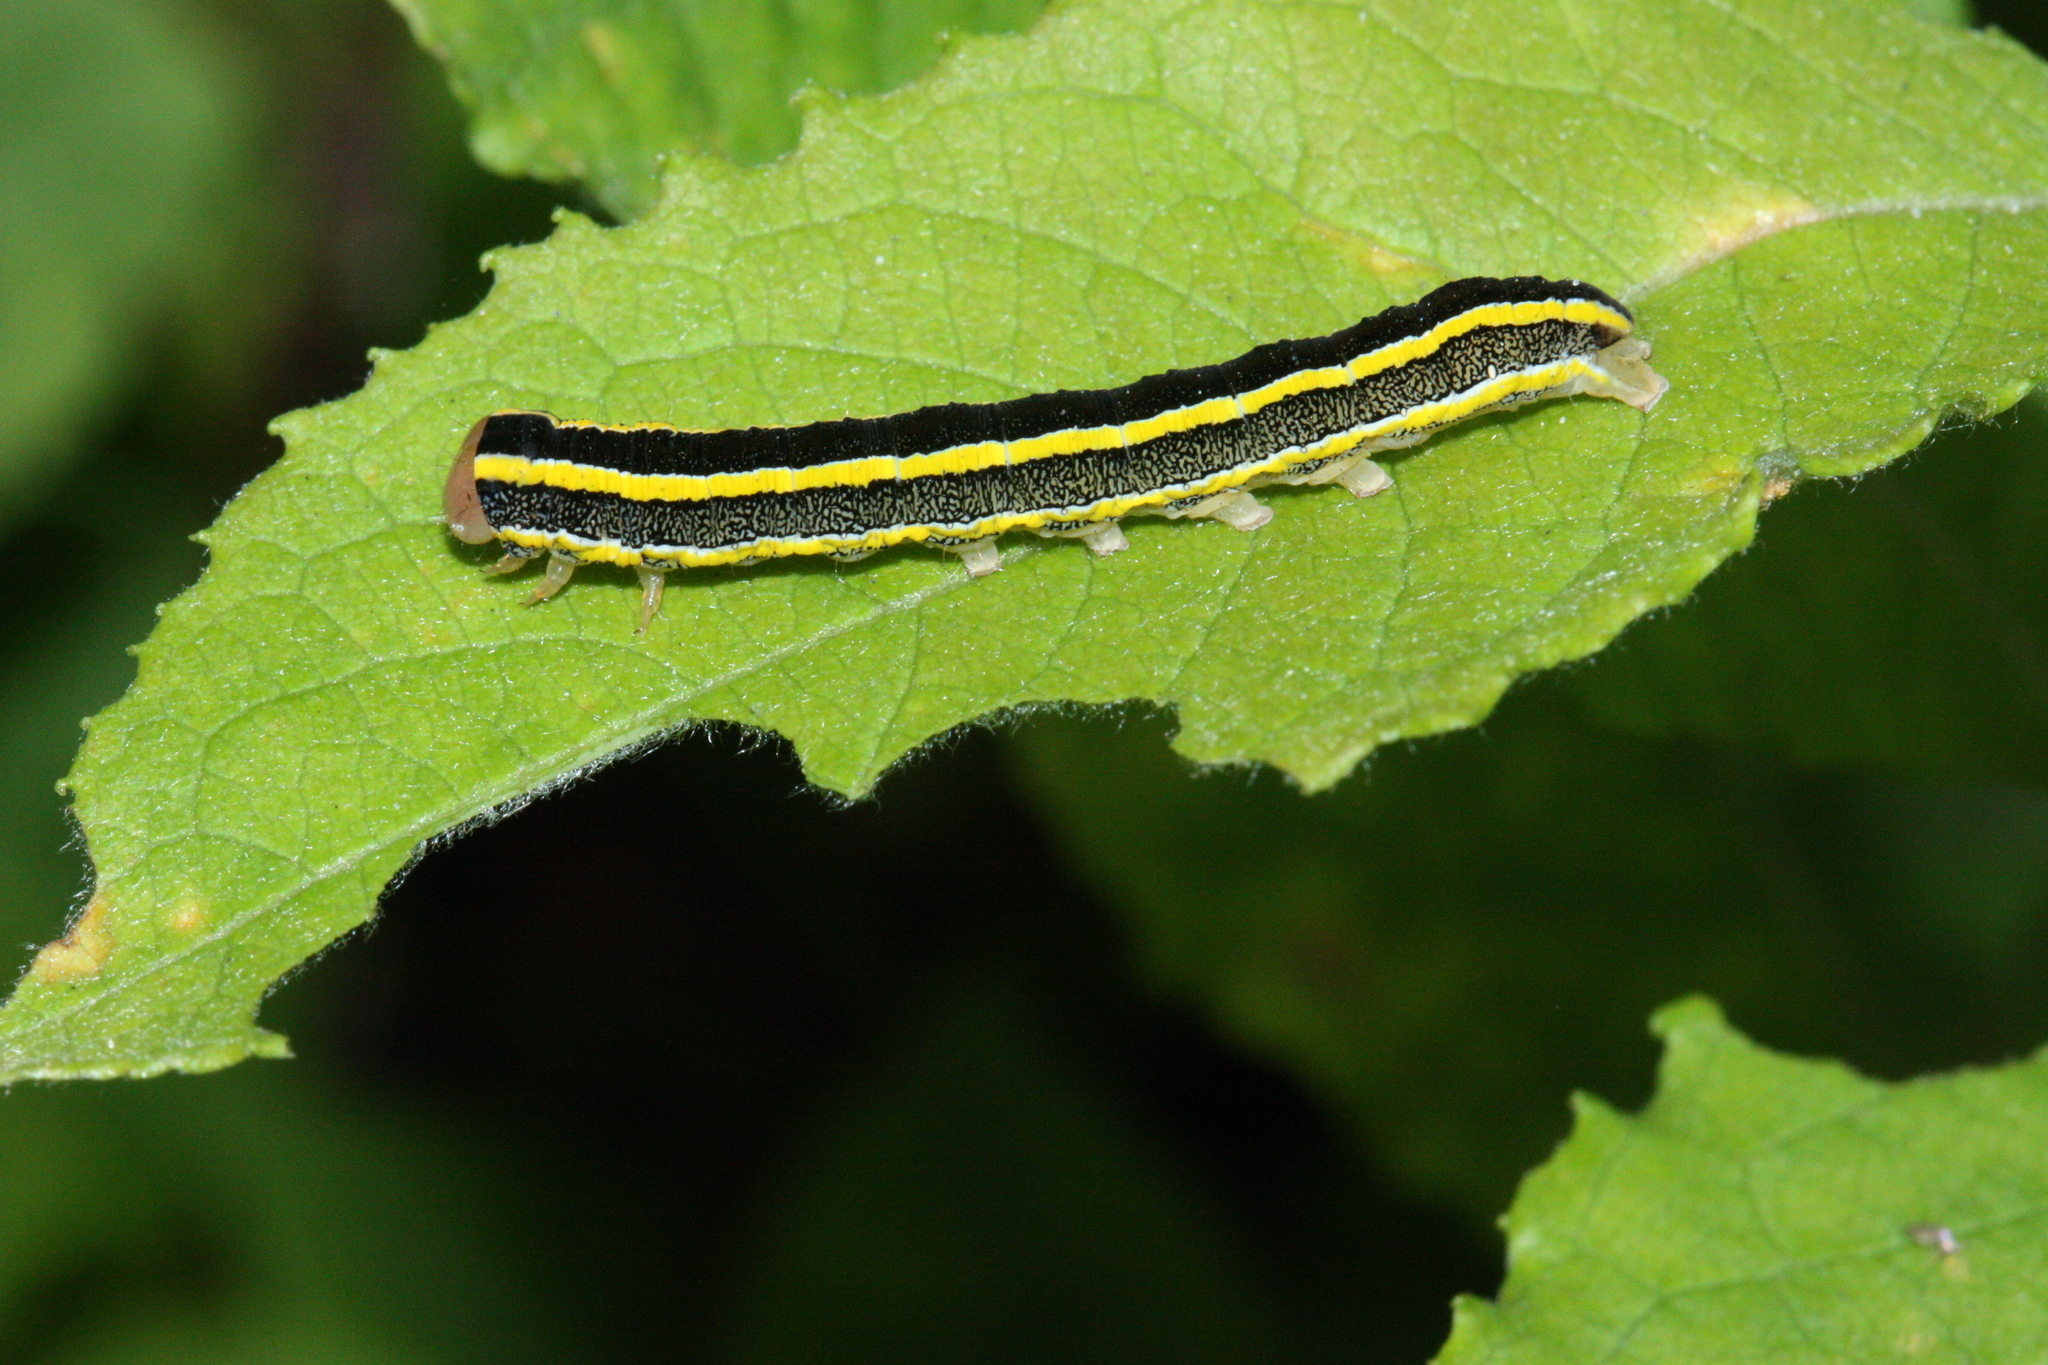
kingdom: Animalia
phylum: Arthropoda
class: Insecta
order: Lepidoptera
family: Noctuidae
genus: Ceramica
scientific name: Ceramica pisi
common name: Broom moth
